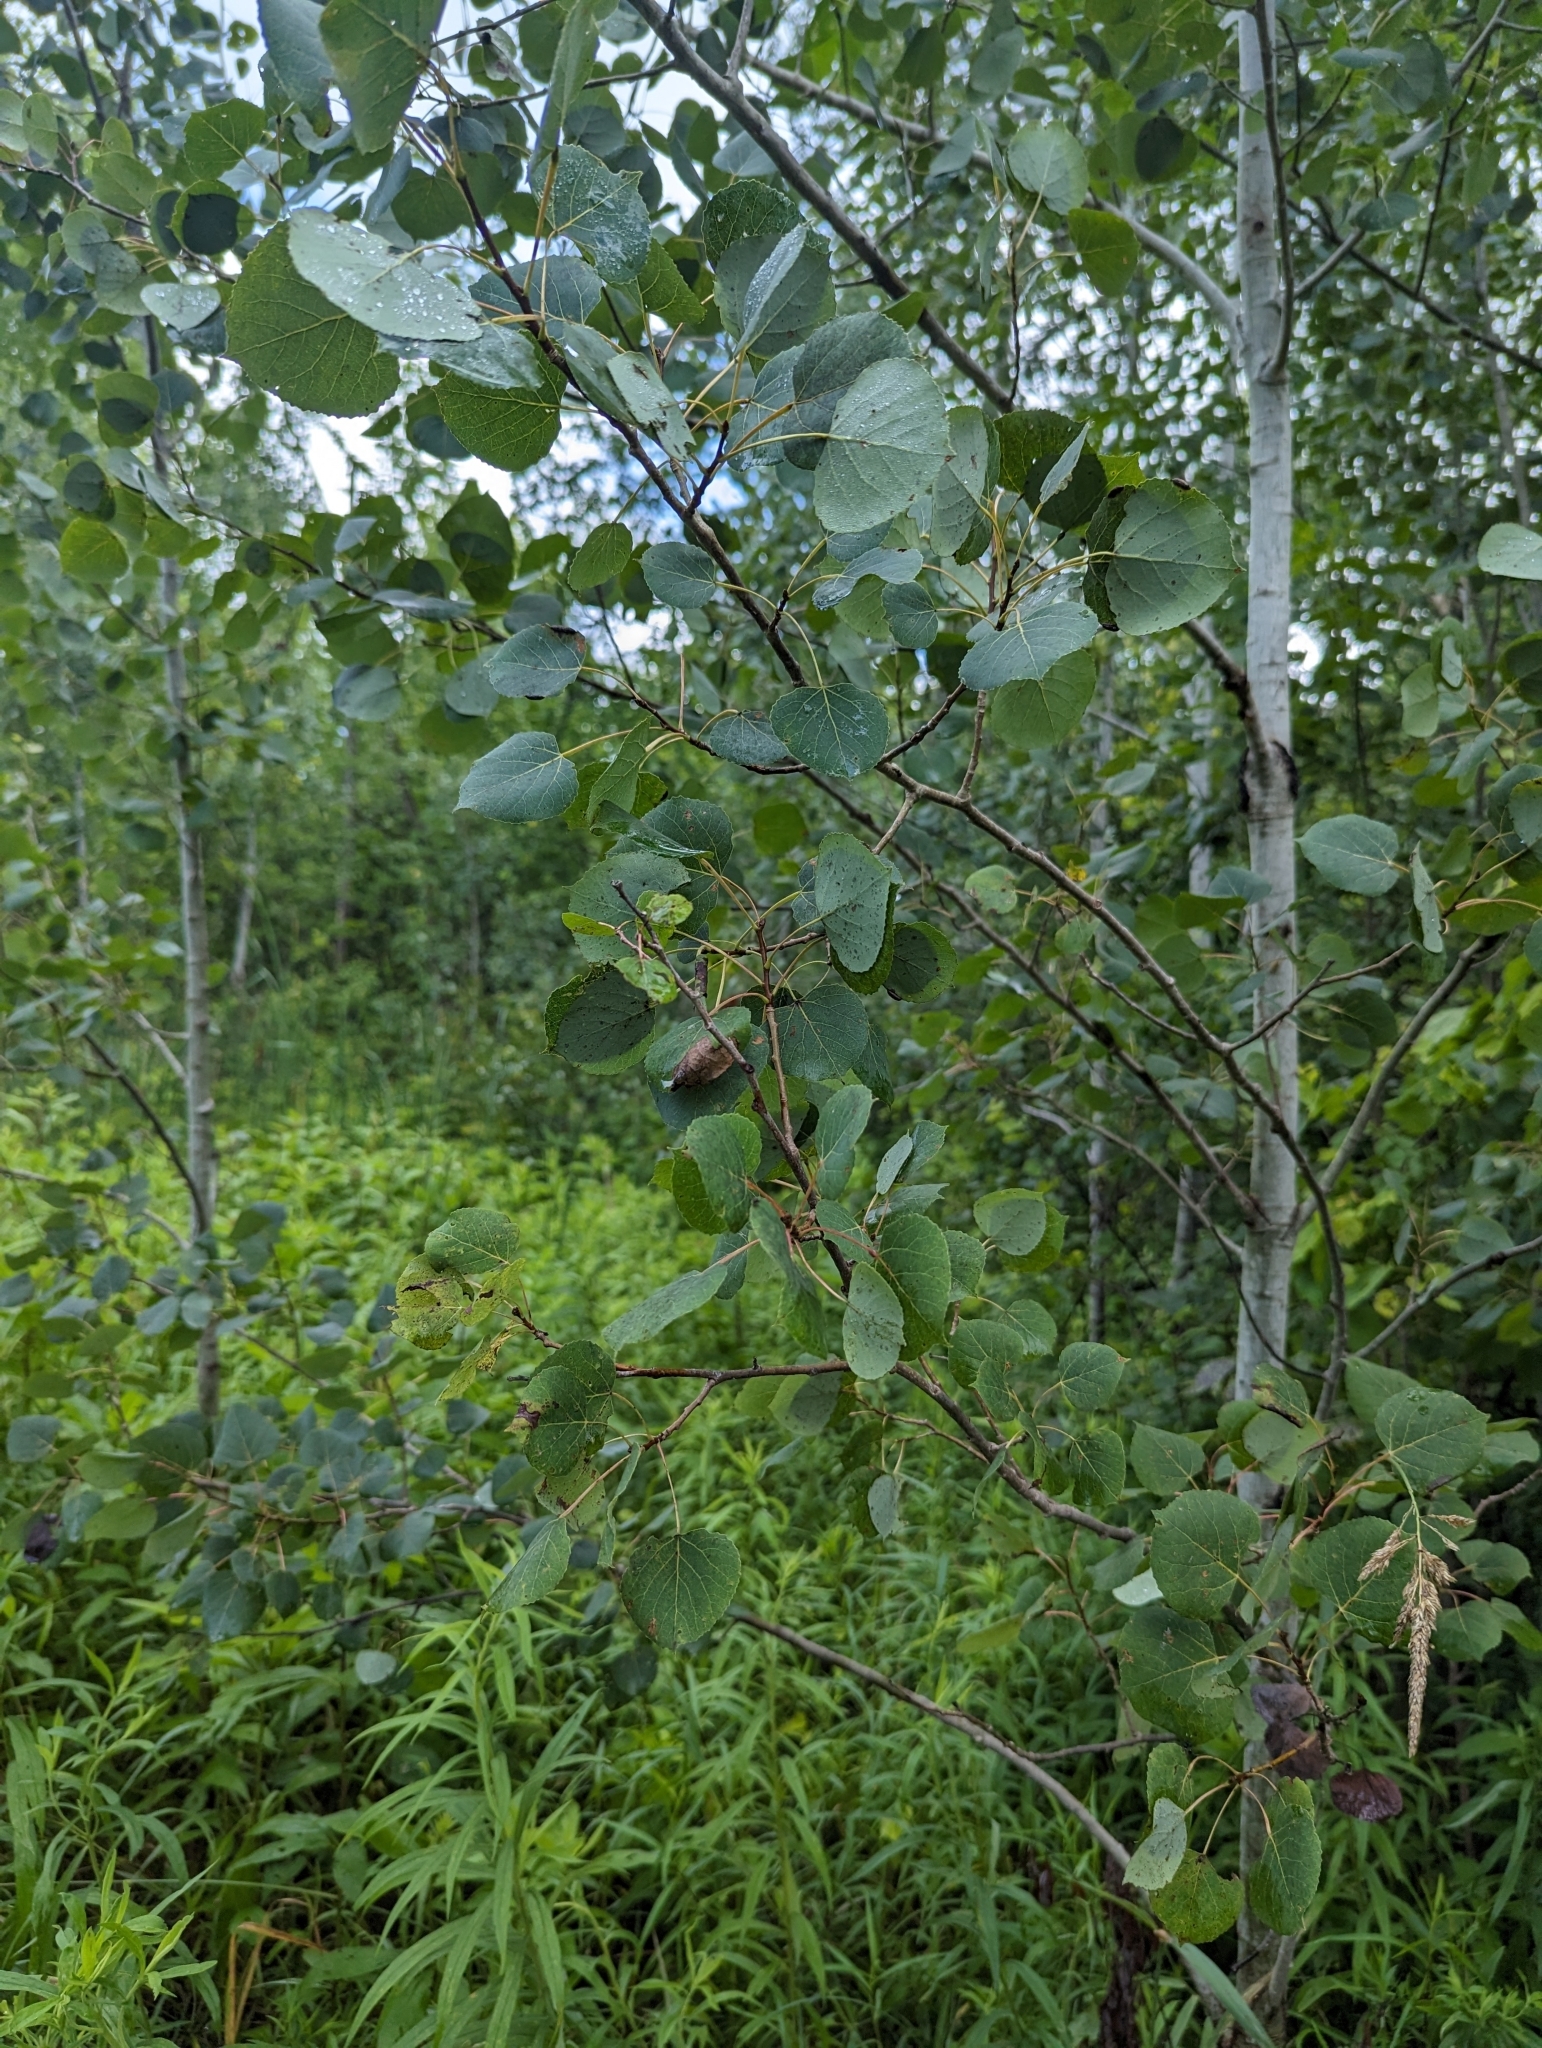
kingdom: Plantae
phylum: Tracheophyta
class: Magnoliopsida
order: Malpighiales
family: Salicaceae
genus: Populus
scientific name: Populus tremuloides
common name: Quaking aspen
